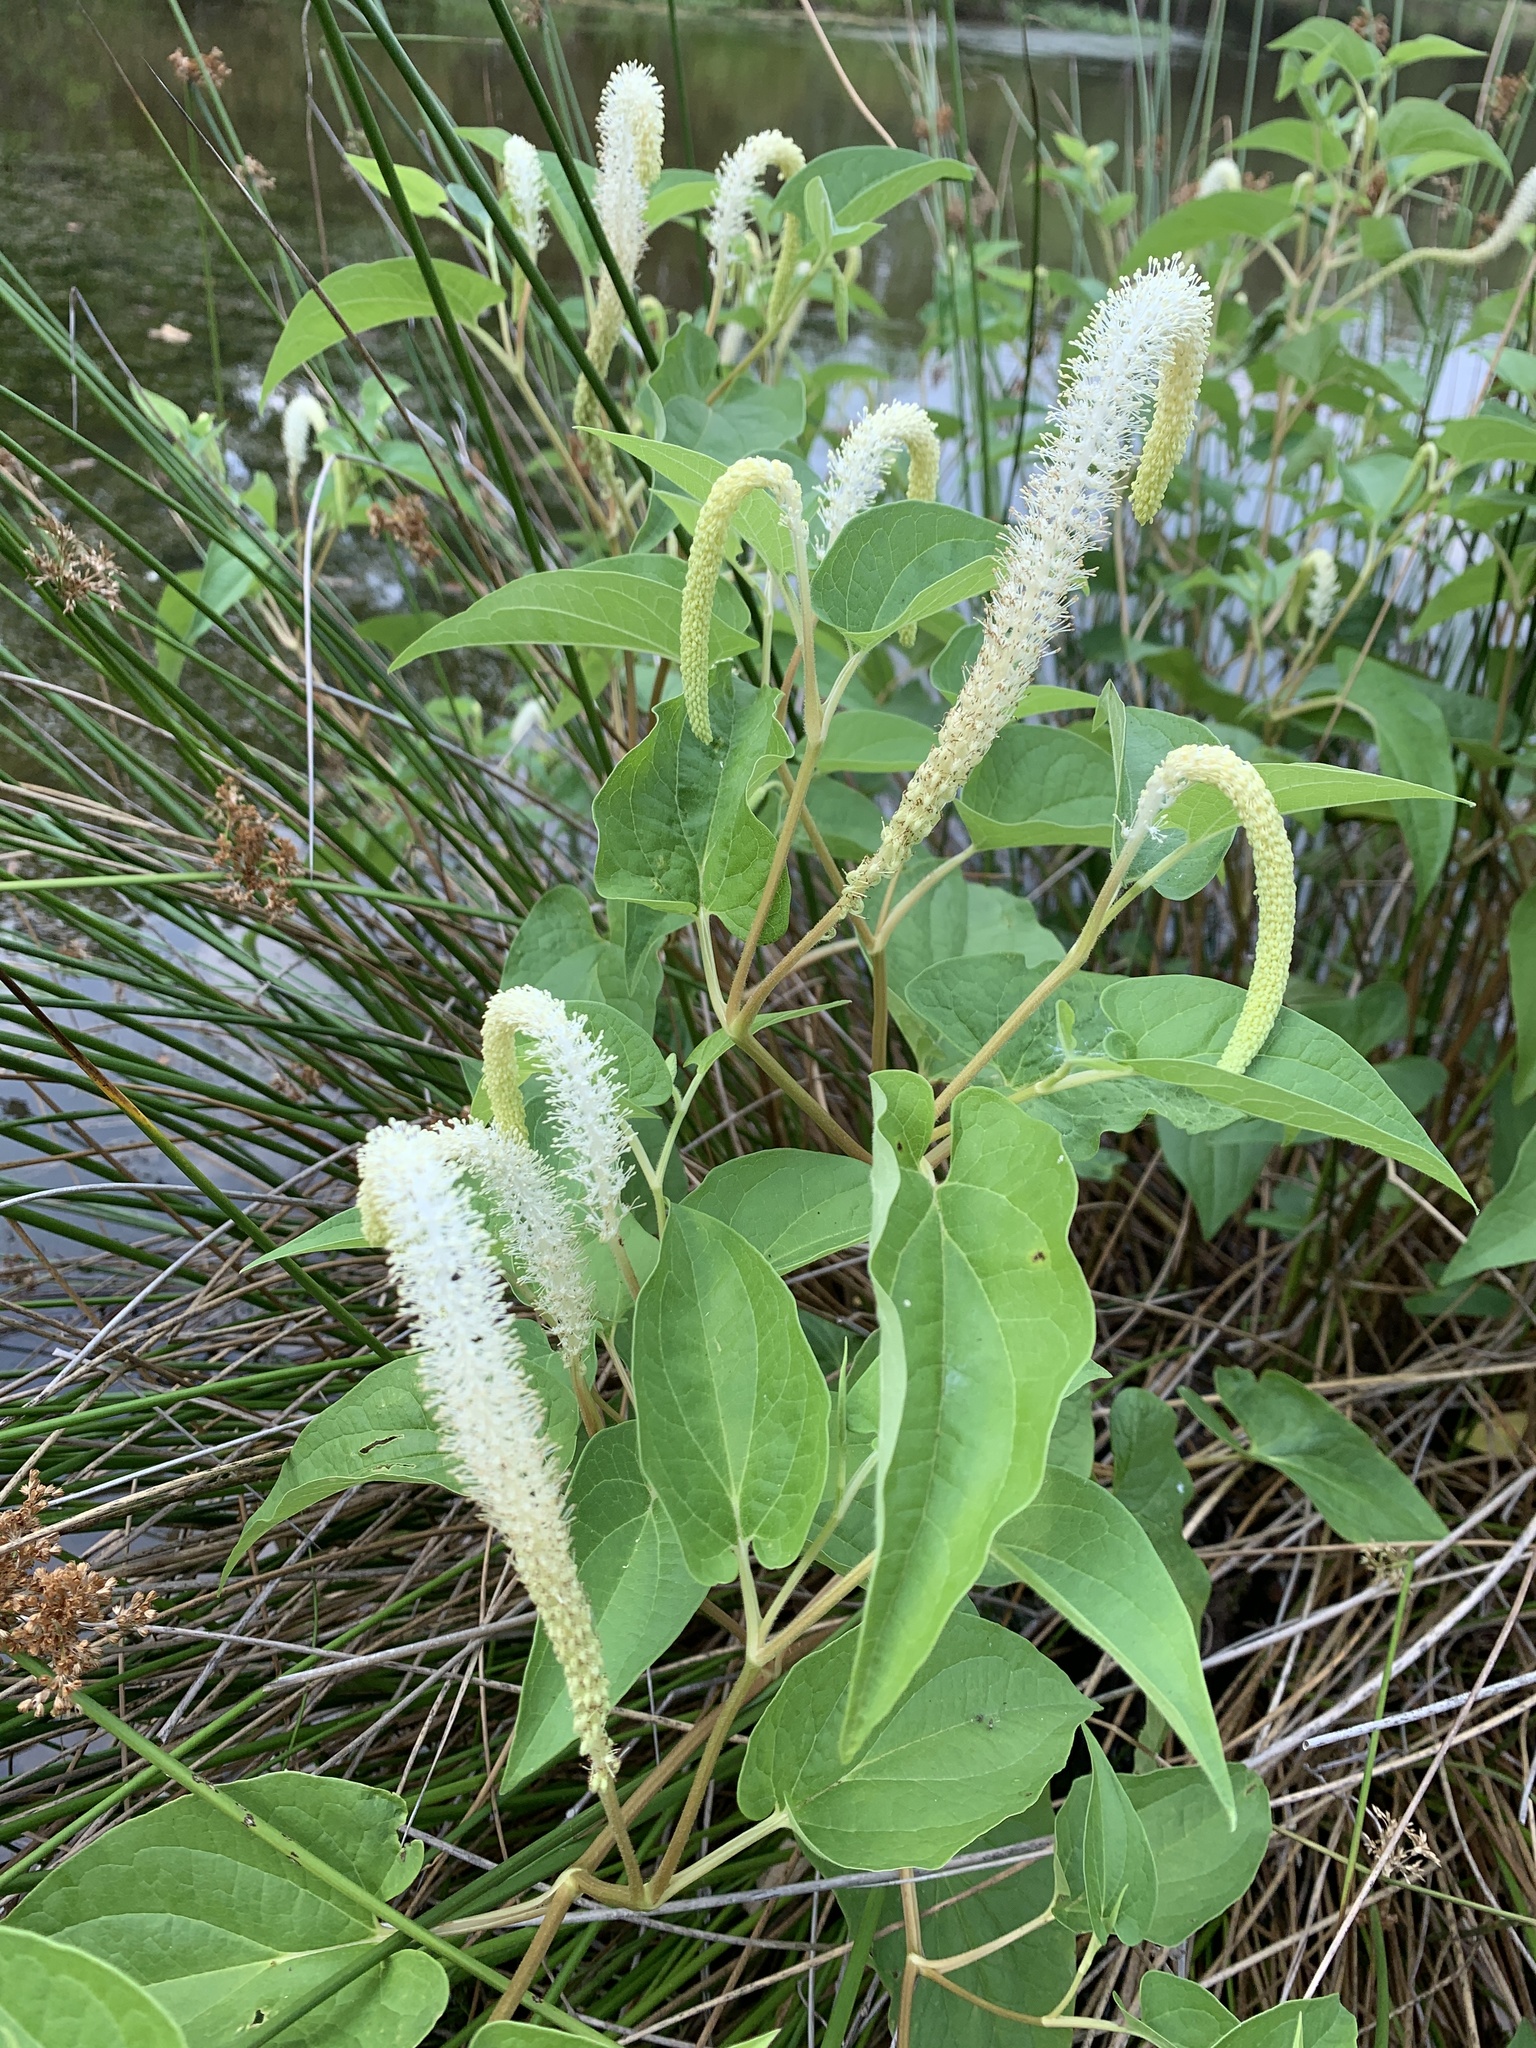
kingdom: Plantae
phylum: Tracheophyta
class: Magnoliopsida
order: Piperales
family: Saururaceae
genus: Saururus
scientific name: Saururus cernuus
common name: Lizard's-tail
